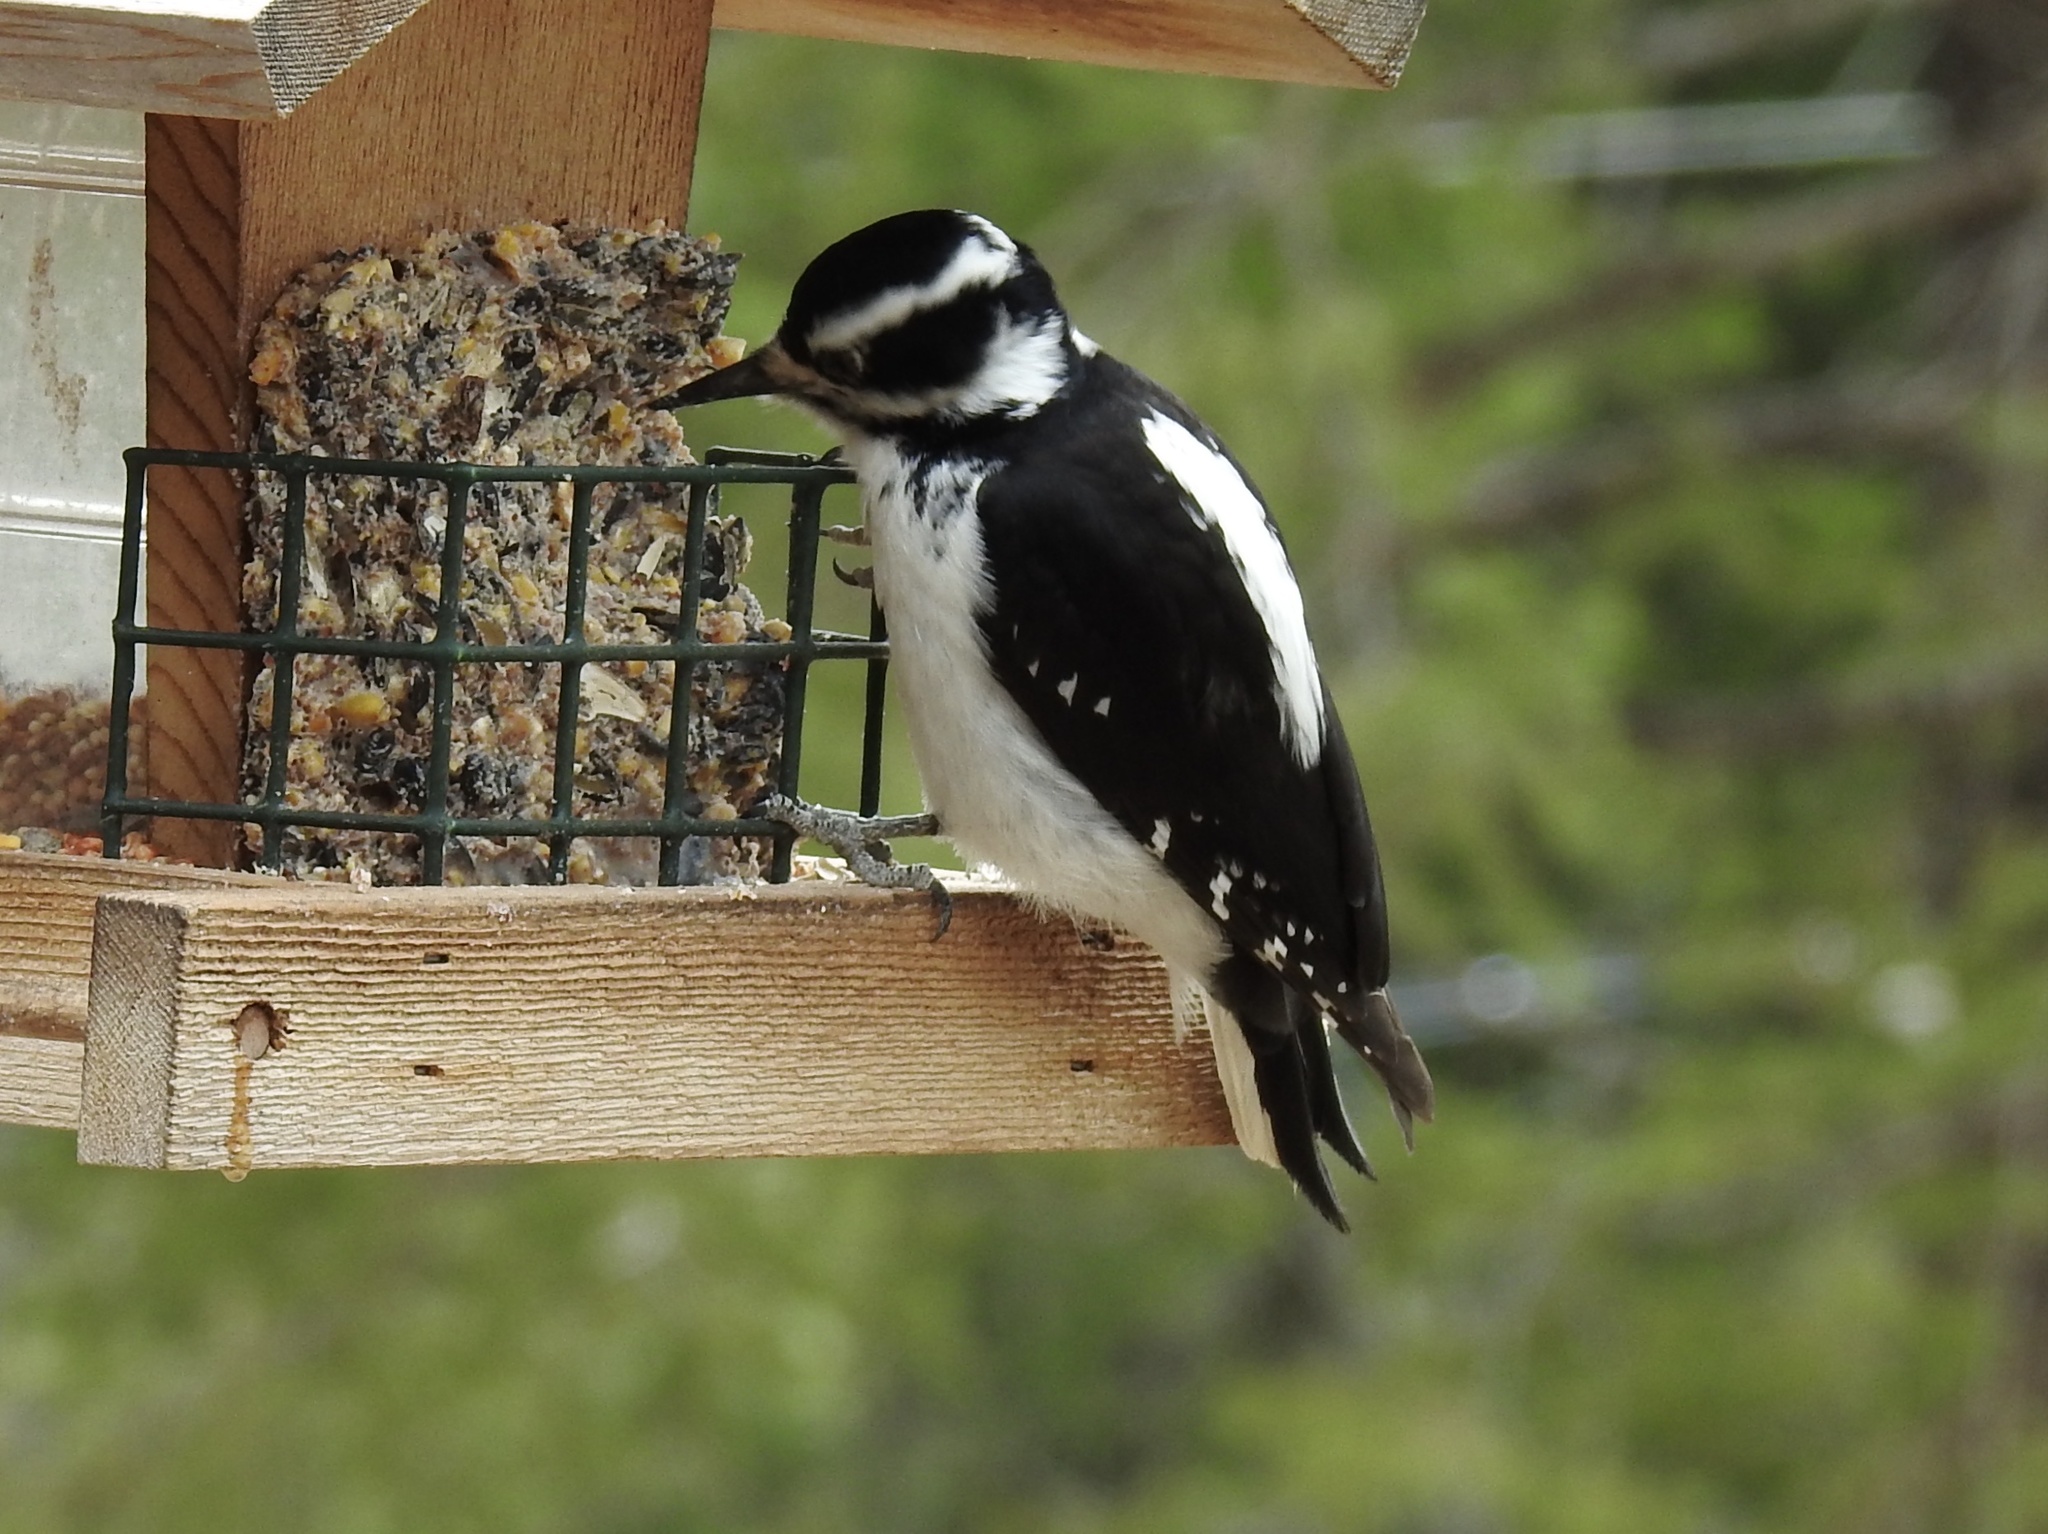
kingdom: Animalia
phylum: Chordata
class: Aves
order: Piciformes
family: Picidae
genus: Leuconotopicus
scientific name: Leuconotopicus villosus
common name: Hairy woodpecker
